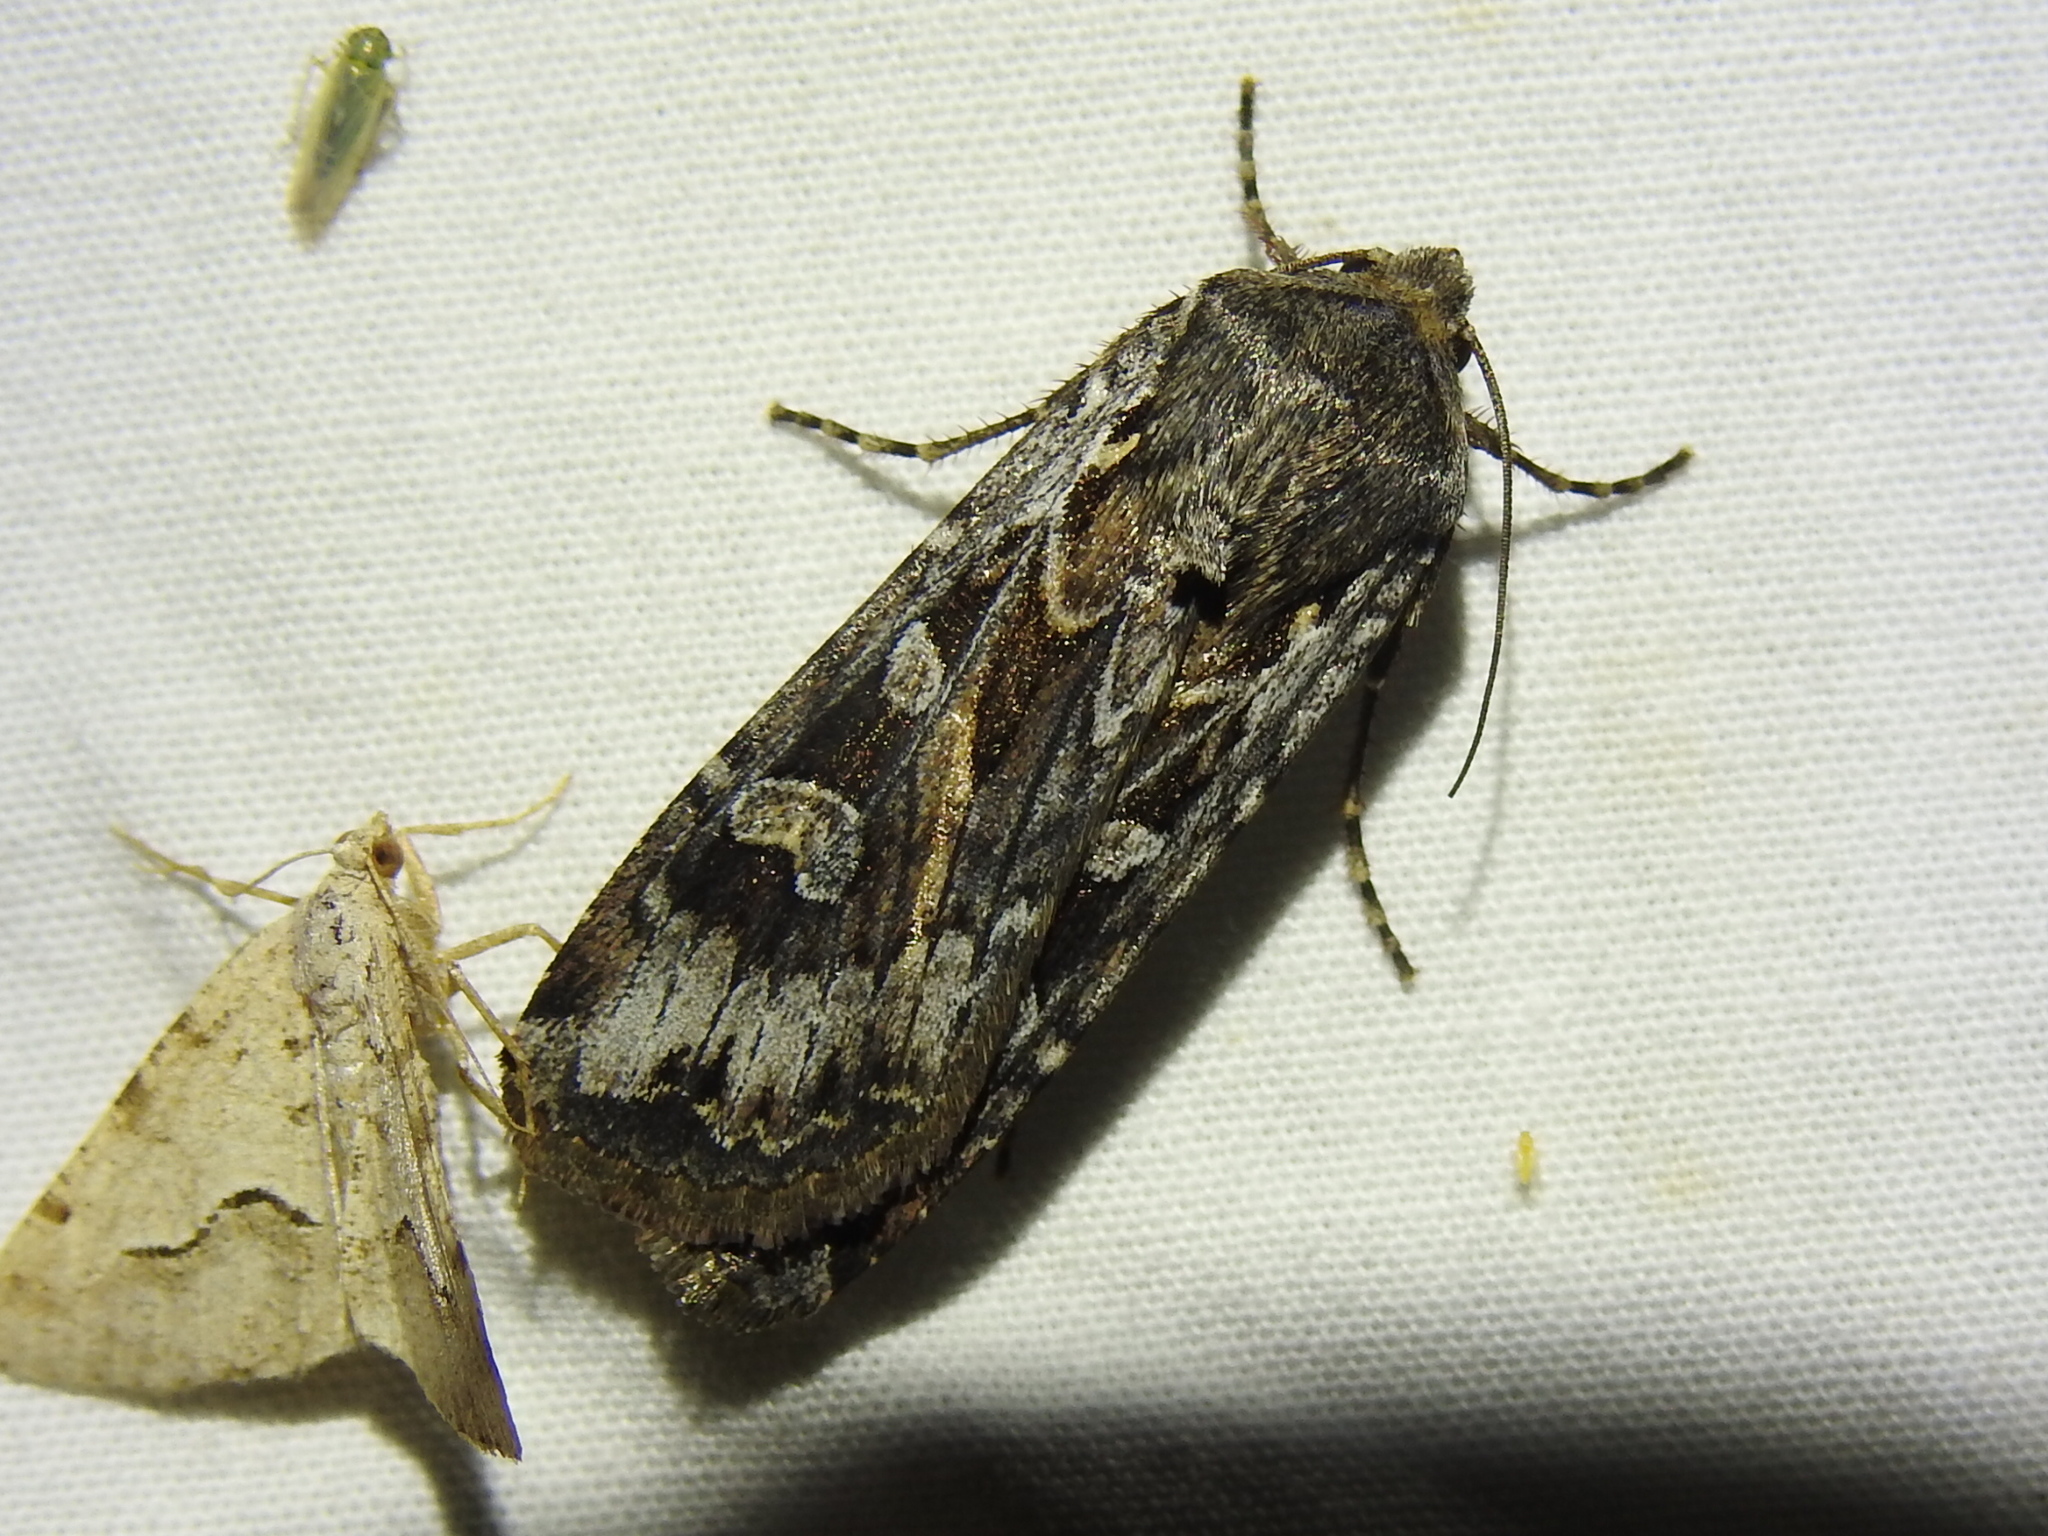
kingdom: Animalia
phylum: Arthropoda
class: Insecta
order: Lepidoptera
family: Noctuidae
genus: Euxoa
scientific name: Euxoa auxiliaris
